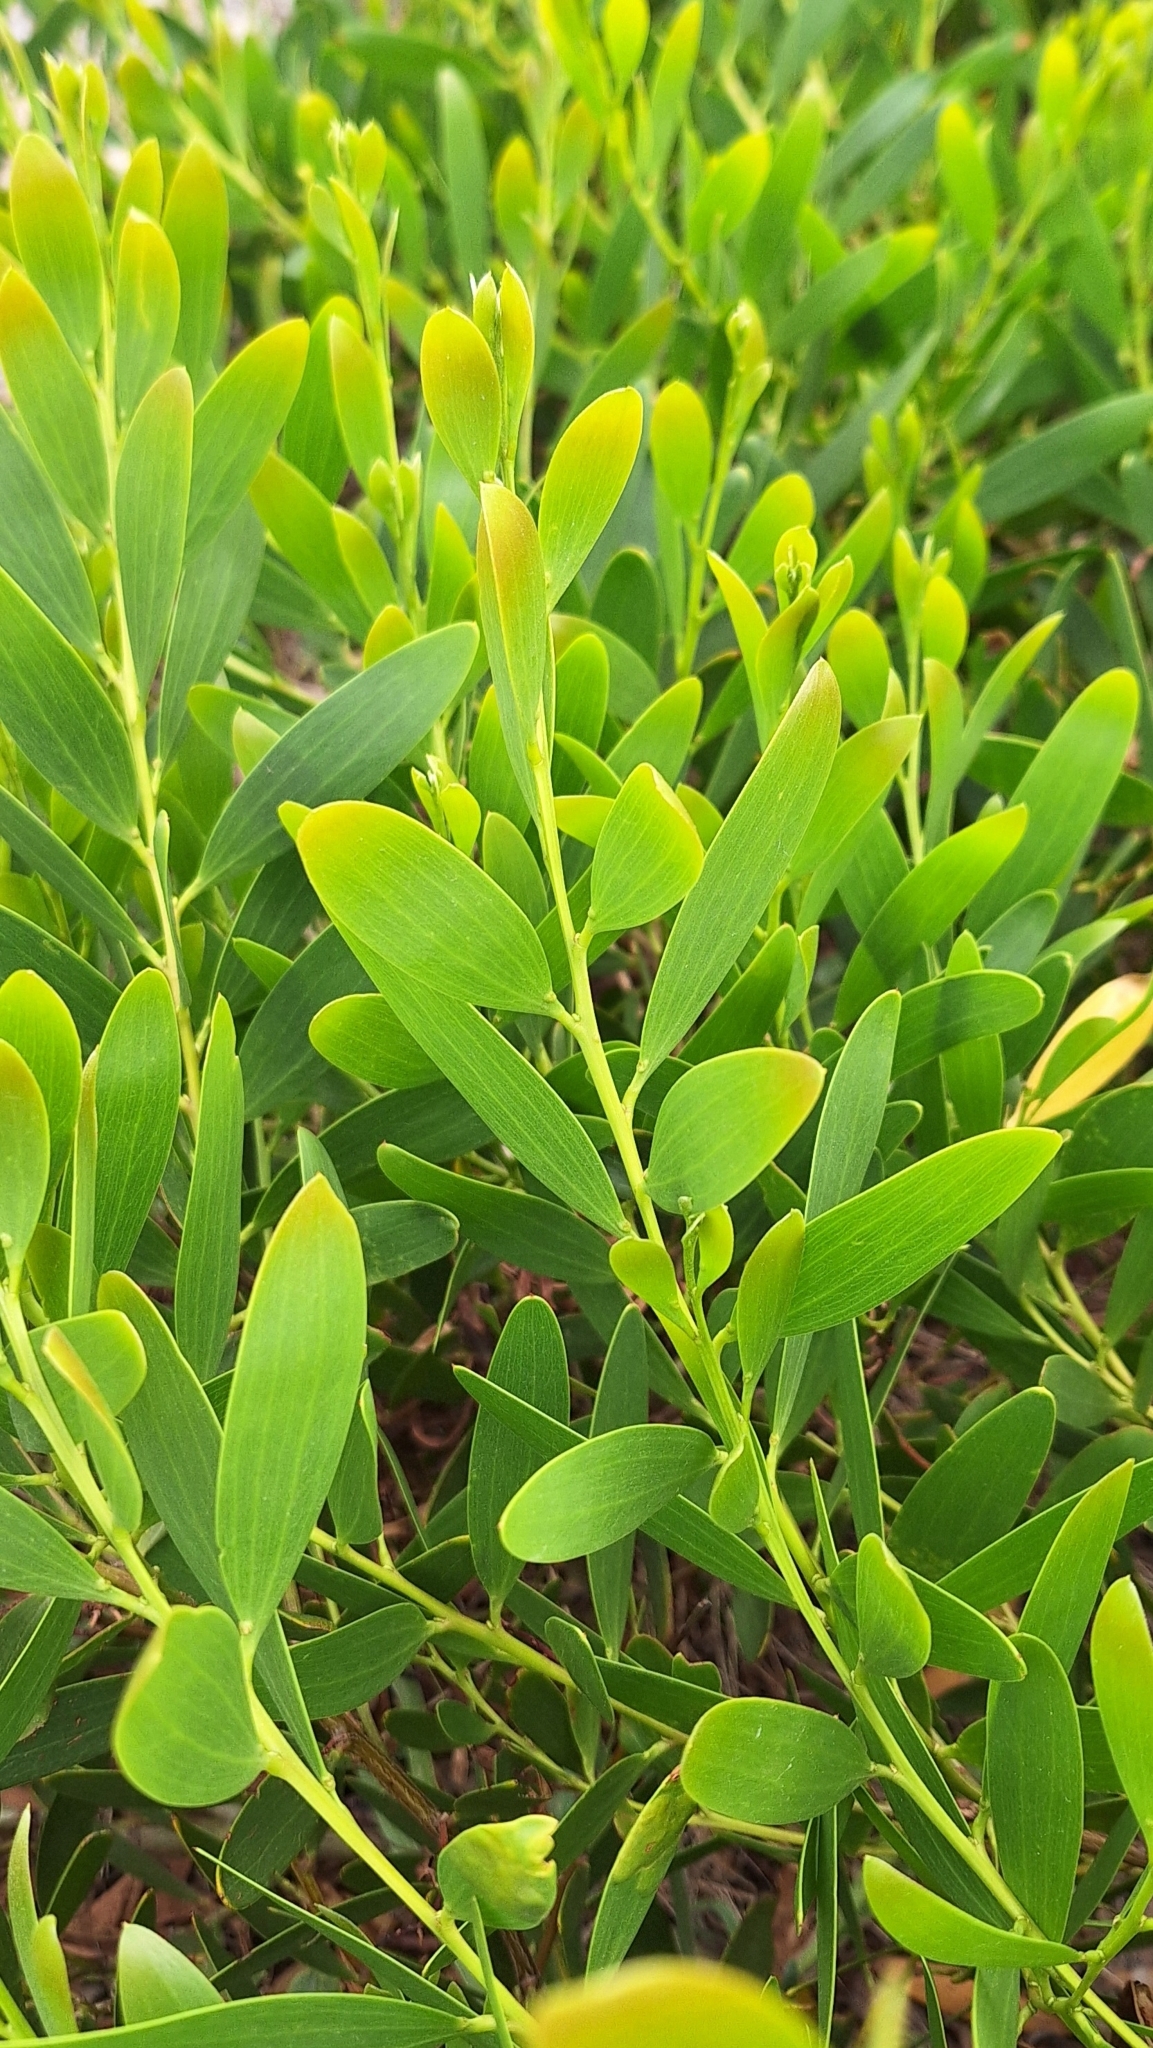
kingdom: Plantae
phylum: Tracheophyta
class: Magnoliopsida
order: Fabales
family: Fabaceae
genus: Acacia
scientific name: Acacia longifolia
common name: Sydney golden wattle
